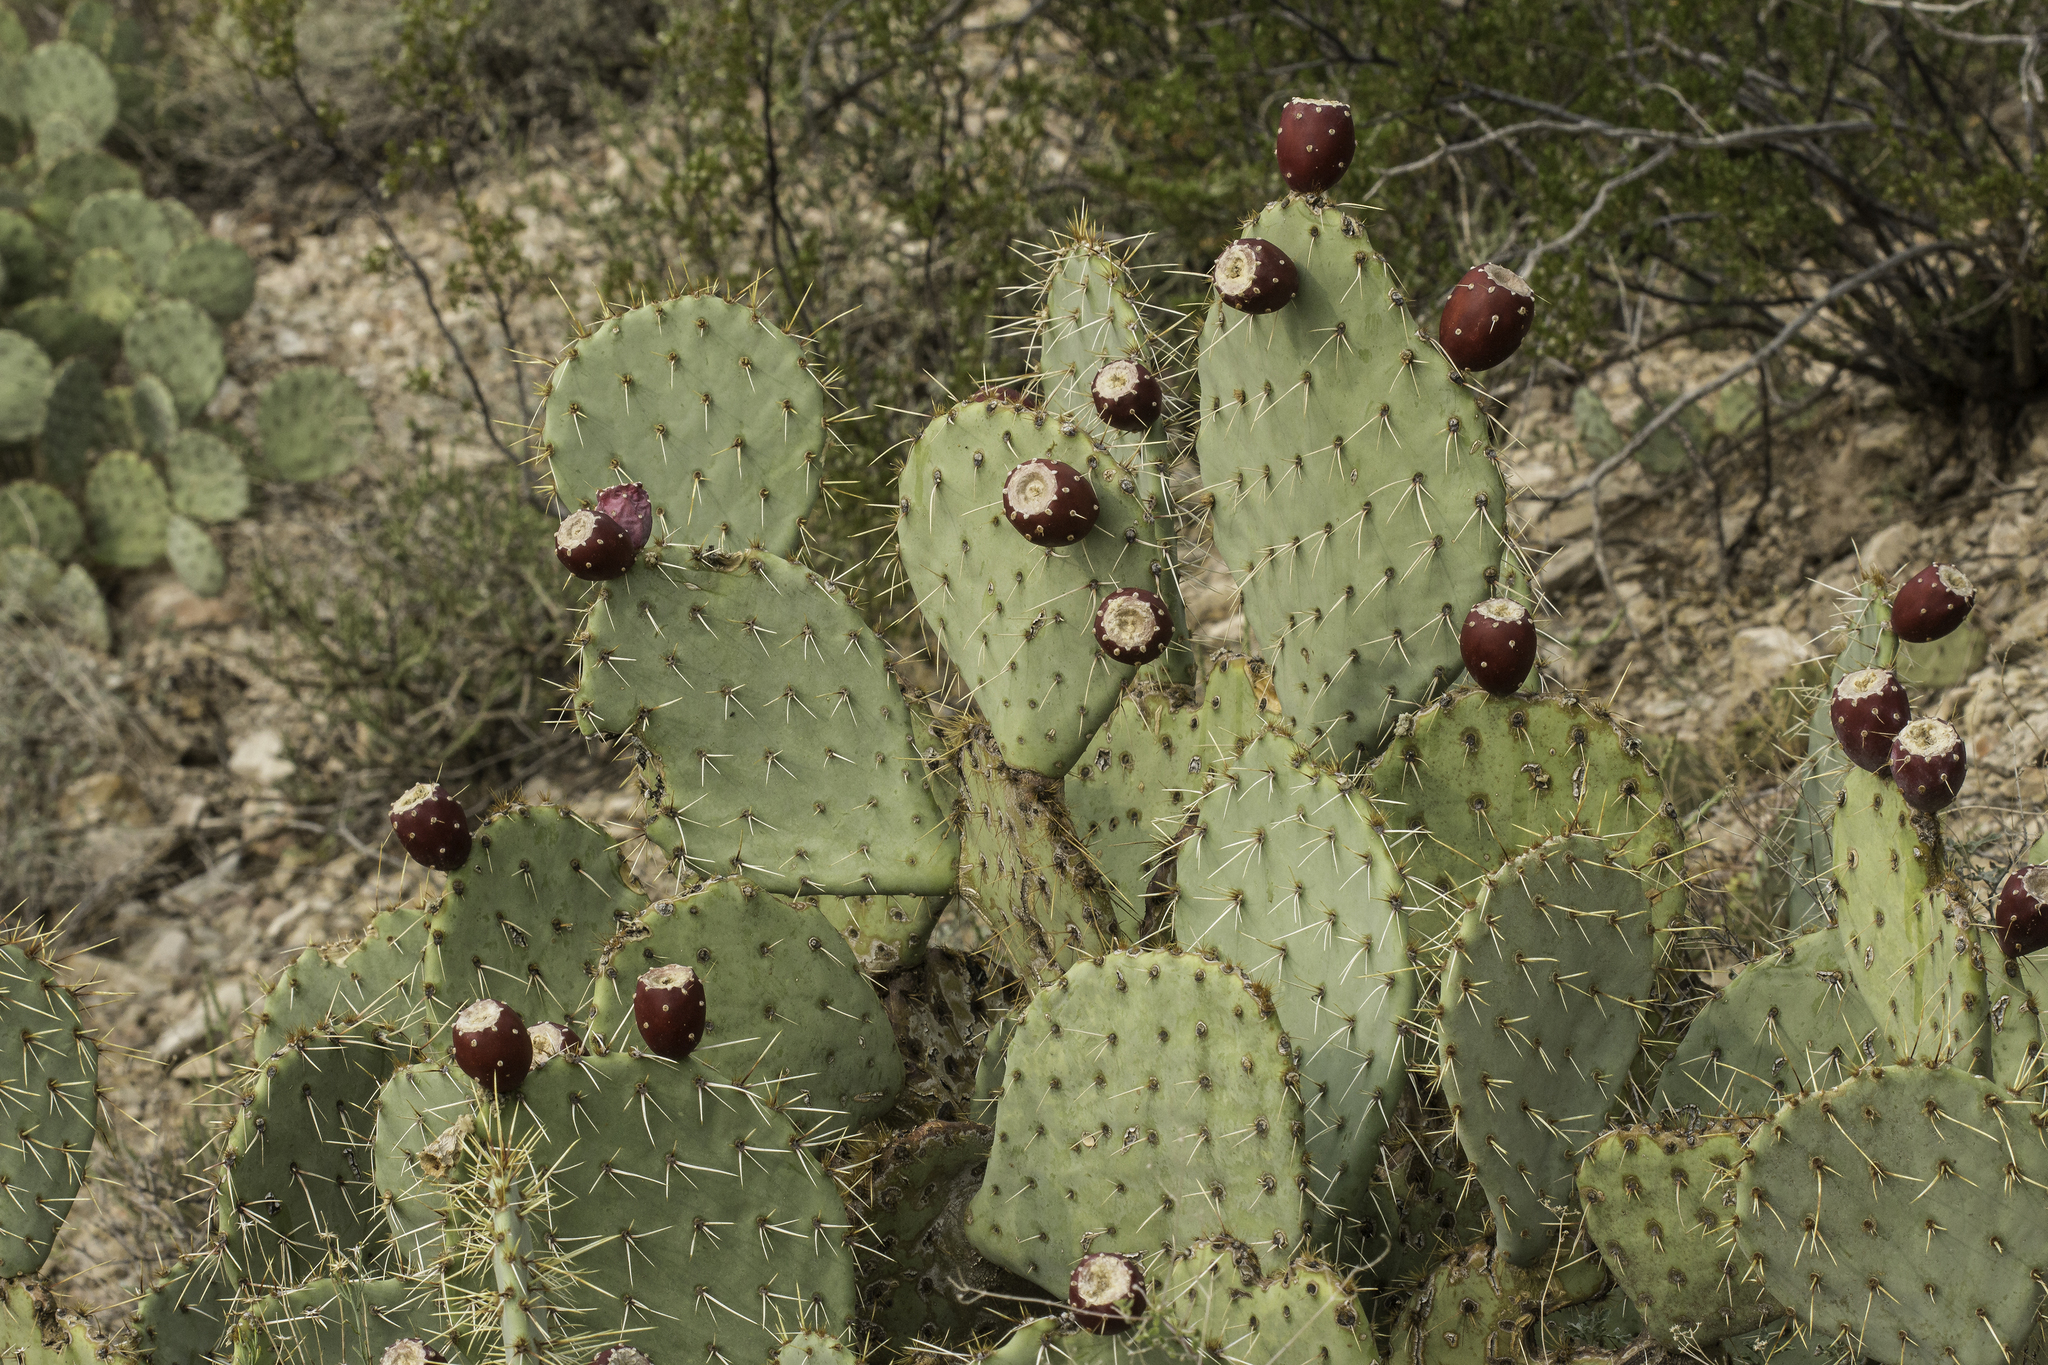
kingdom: Plantae
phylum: Tracheophyta
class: Magnoliopsida
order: Caryophyllales
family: Cactaceae
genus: Opuntia
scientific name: Opuntia engelmannii
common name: Cactus-apple
